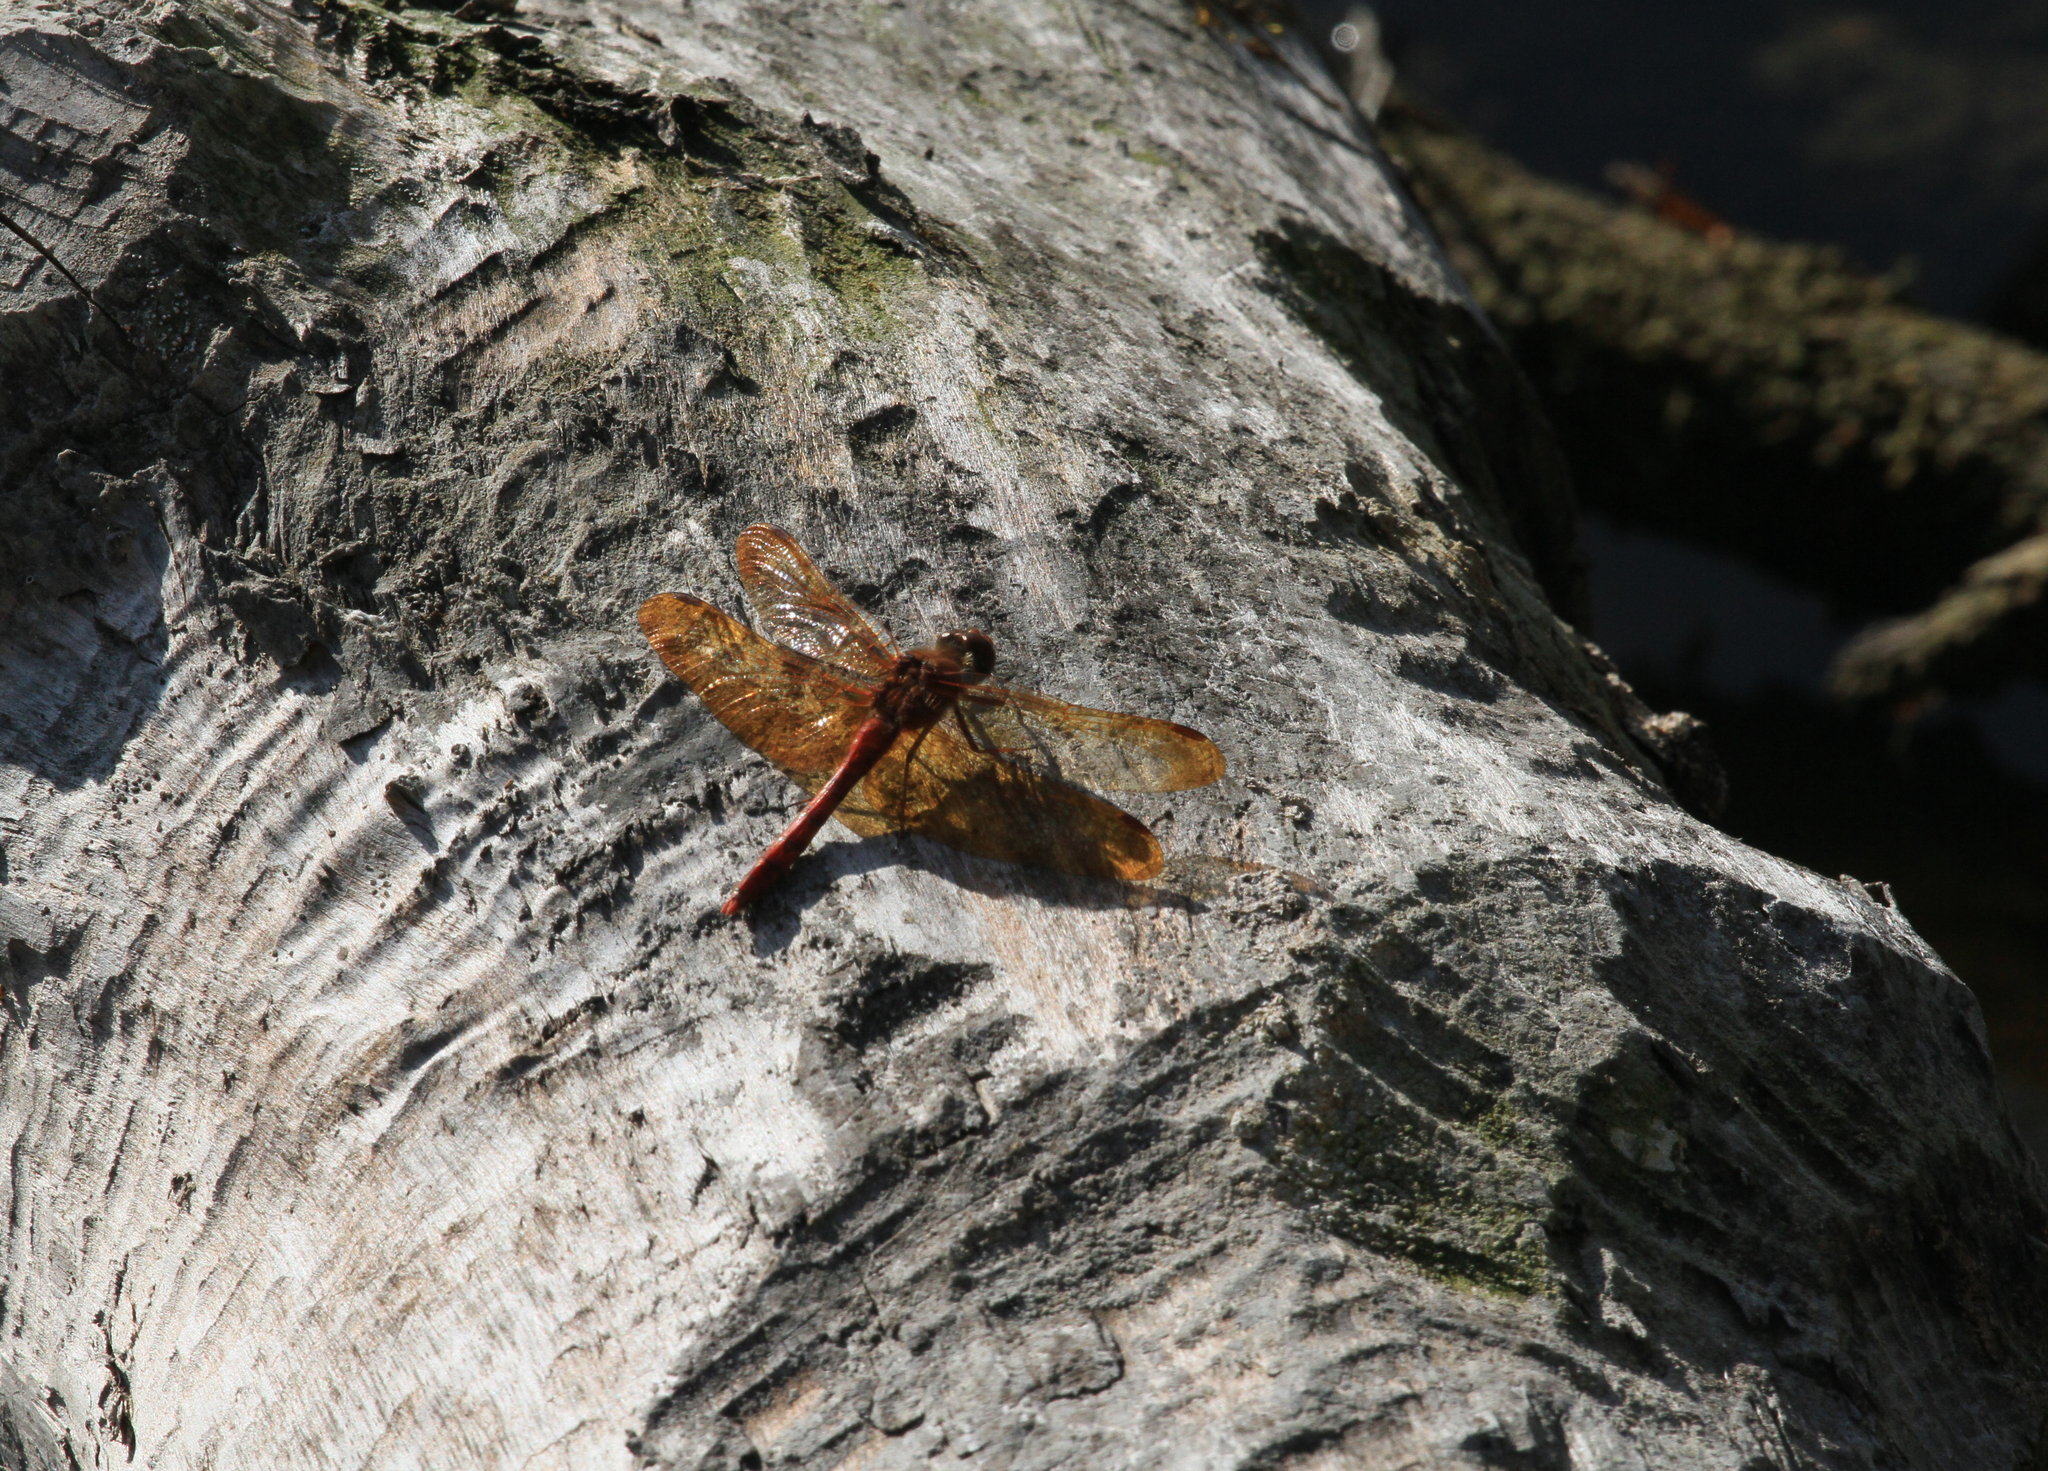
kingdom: Animalia
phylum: Arthropoda
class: Insecta
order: Odonata
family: Libellulidae
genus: Sympetrum
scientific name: Sympetrum croceolum
